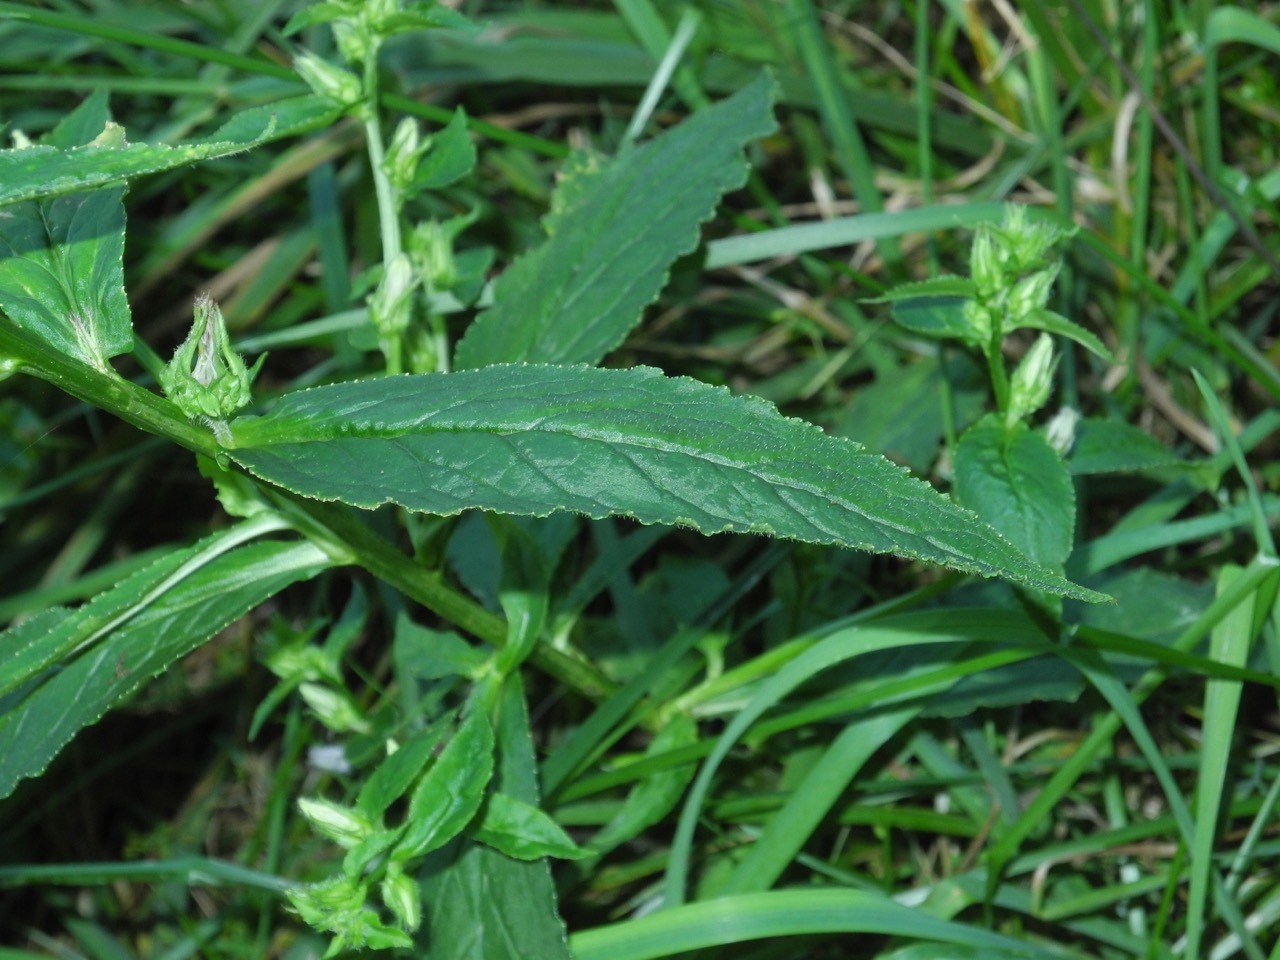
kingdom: Plantae
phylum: Tracheophyta
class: Magnoliopsida
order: Asterales
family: Campanulaceae
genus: Lobelia
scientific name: Lobelia siphilitica
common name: Great lobelia
